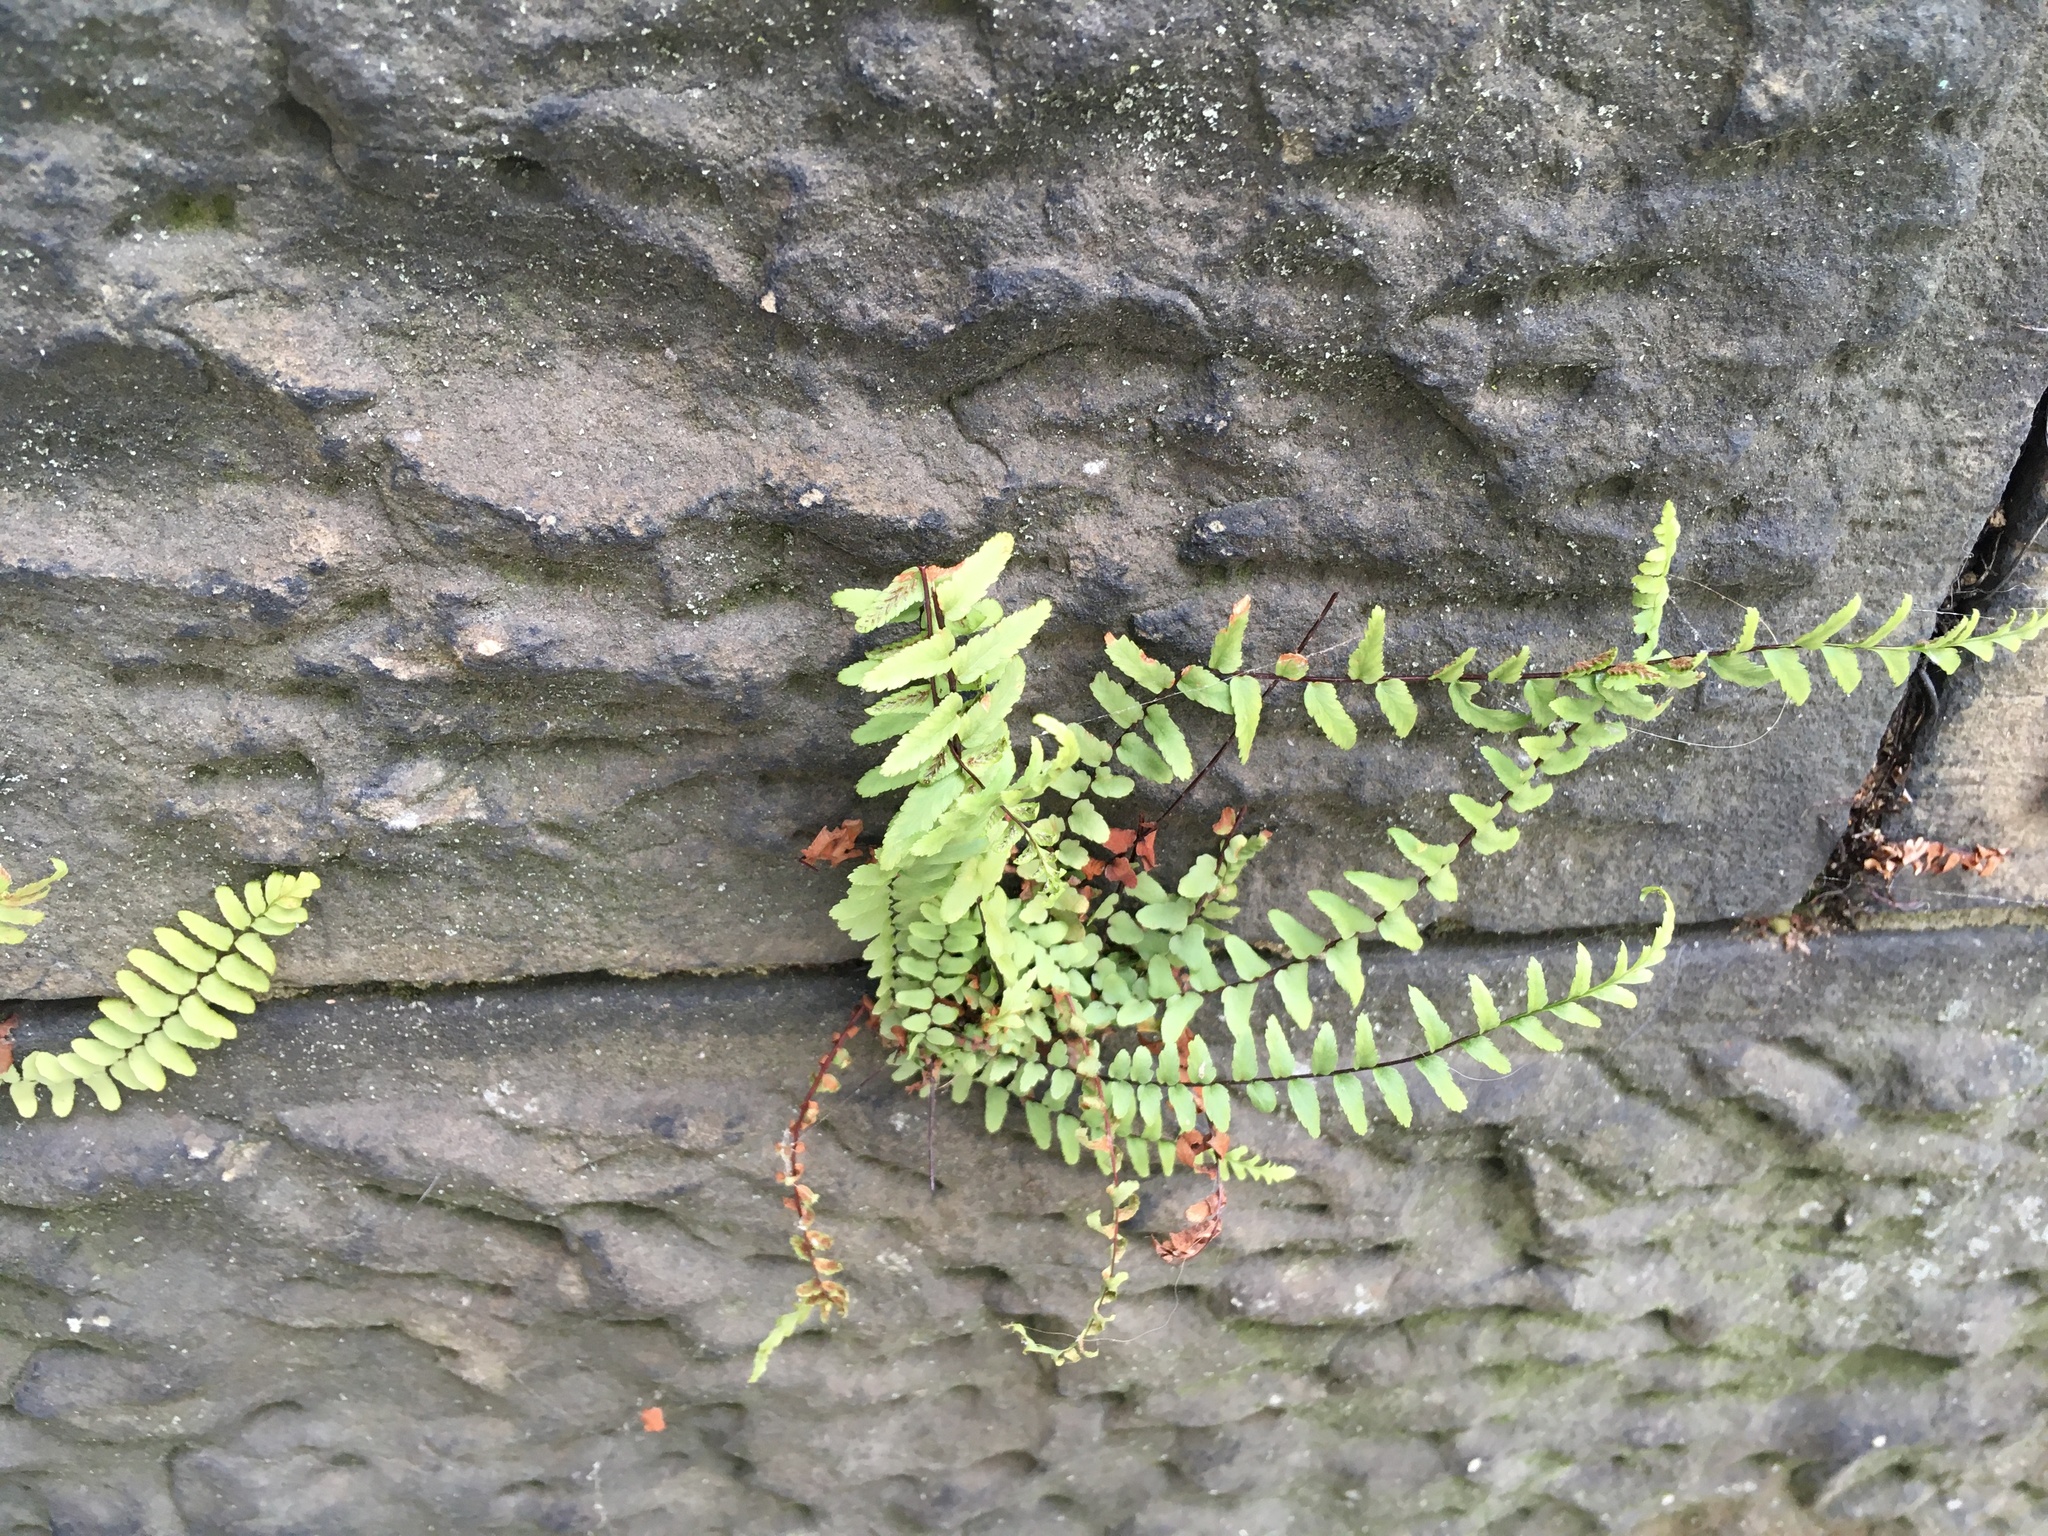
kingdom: Plantae
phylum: Tracheophyta
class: Polypodiopsida
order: Polypodiales
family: Aspleniaceae
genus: Asplenium
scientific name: Asplenium platyneuron
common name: Ebony spleenwort
